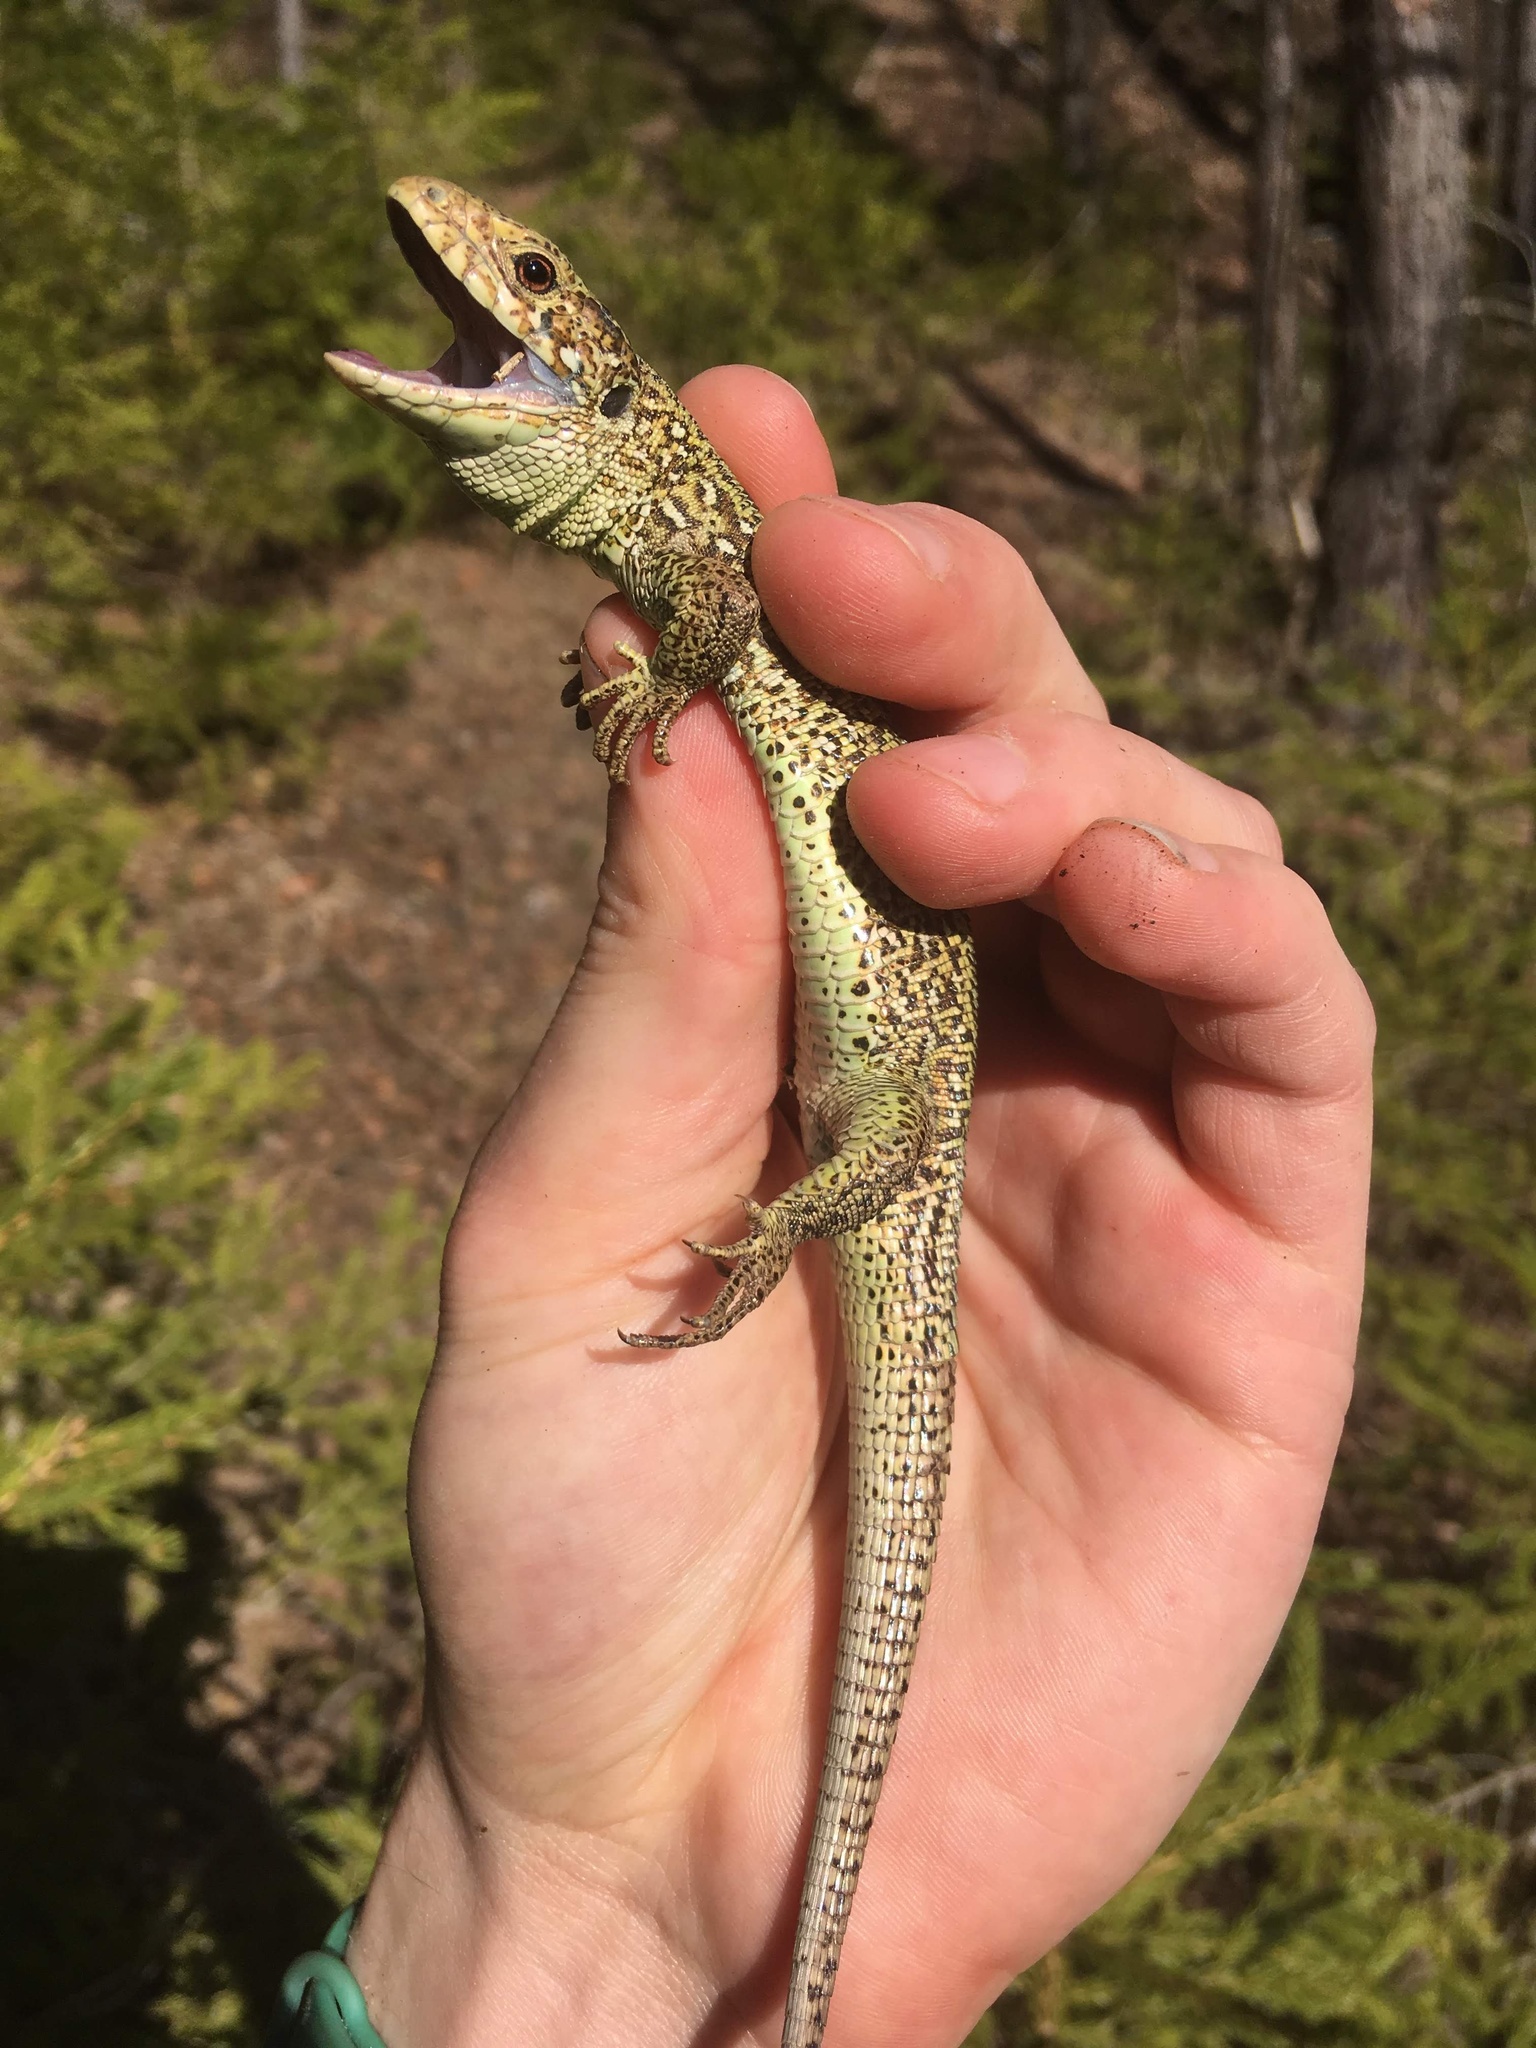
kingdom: Animalia
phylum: Chordata
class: Squamata
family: Lacertidae
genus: Lacerta
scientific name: Lacerta agilis
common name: Sand lizard
